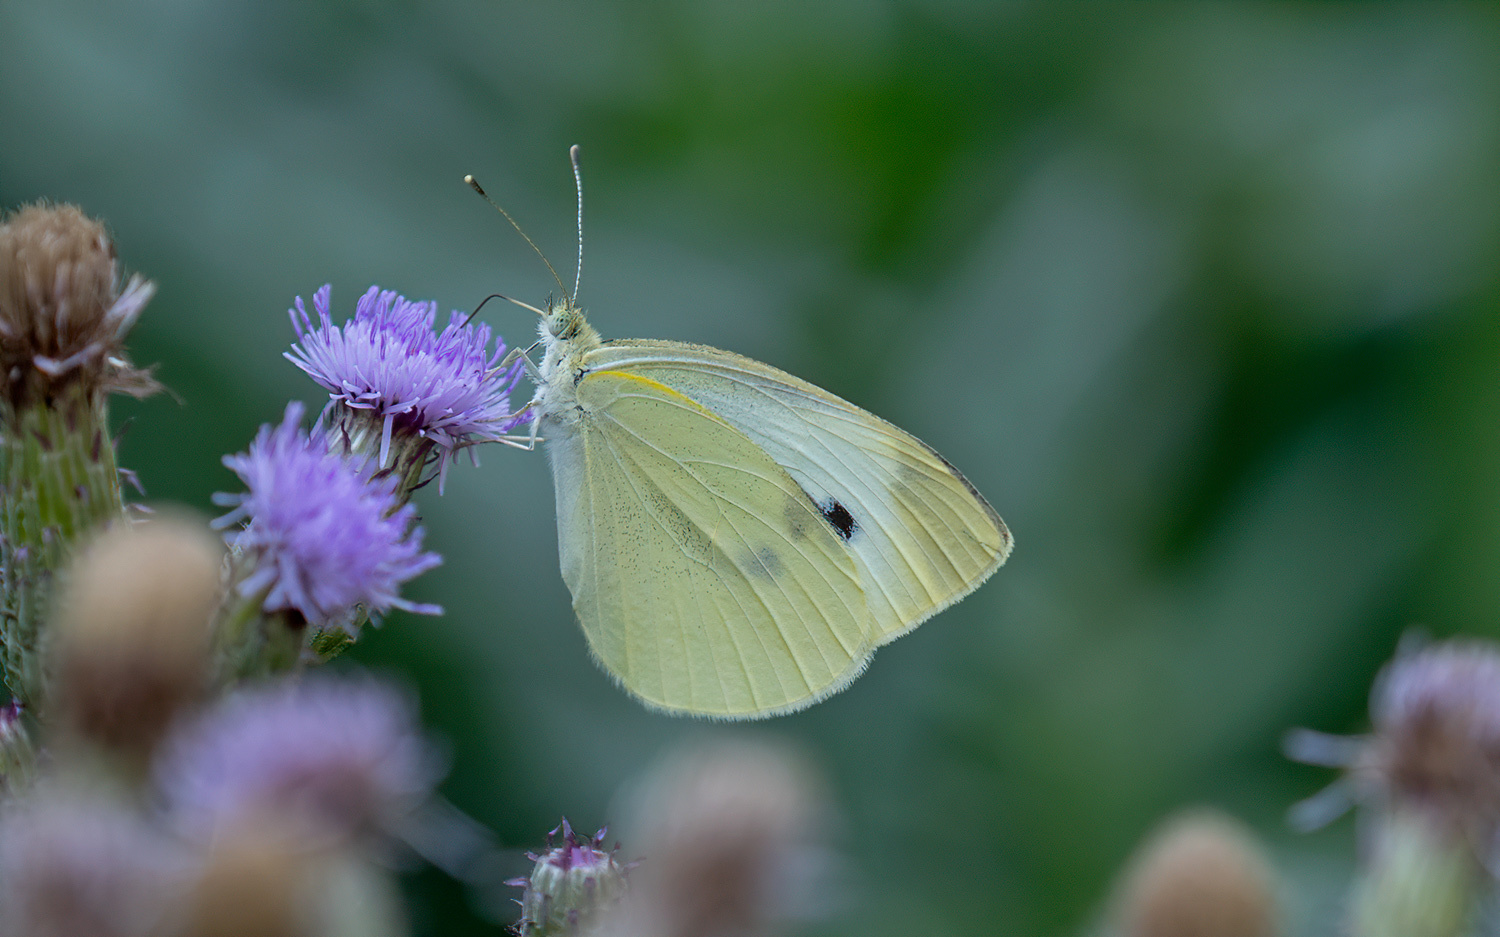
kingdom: Animalia
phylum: Arthropoda
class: Insecta
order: Lepidoptera
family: Pieridae
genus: Pieris
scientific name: Pieris rapae
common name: Small white
